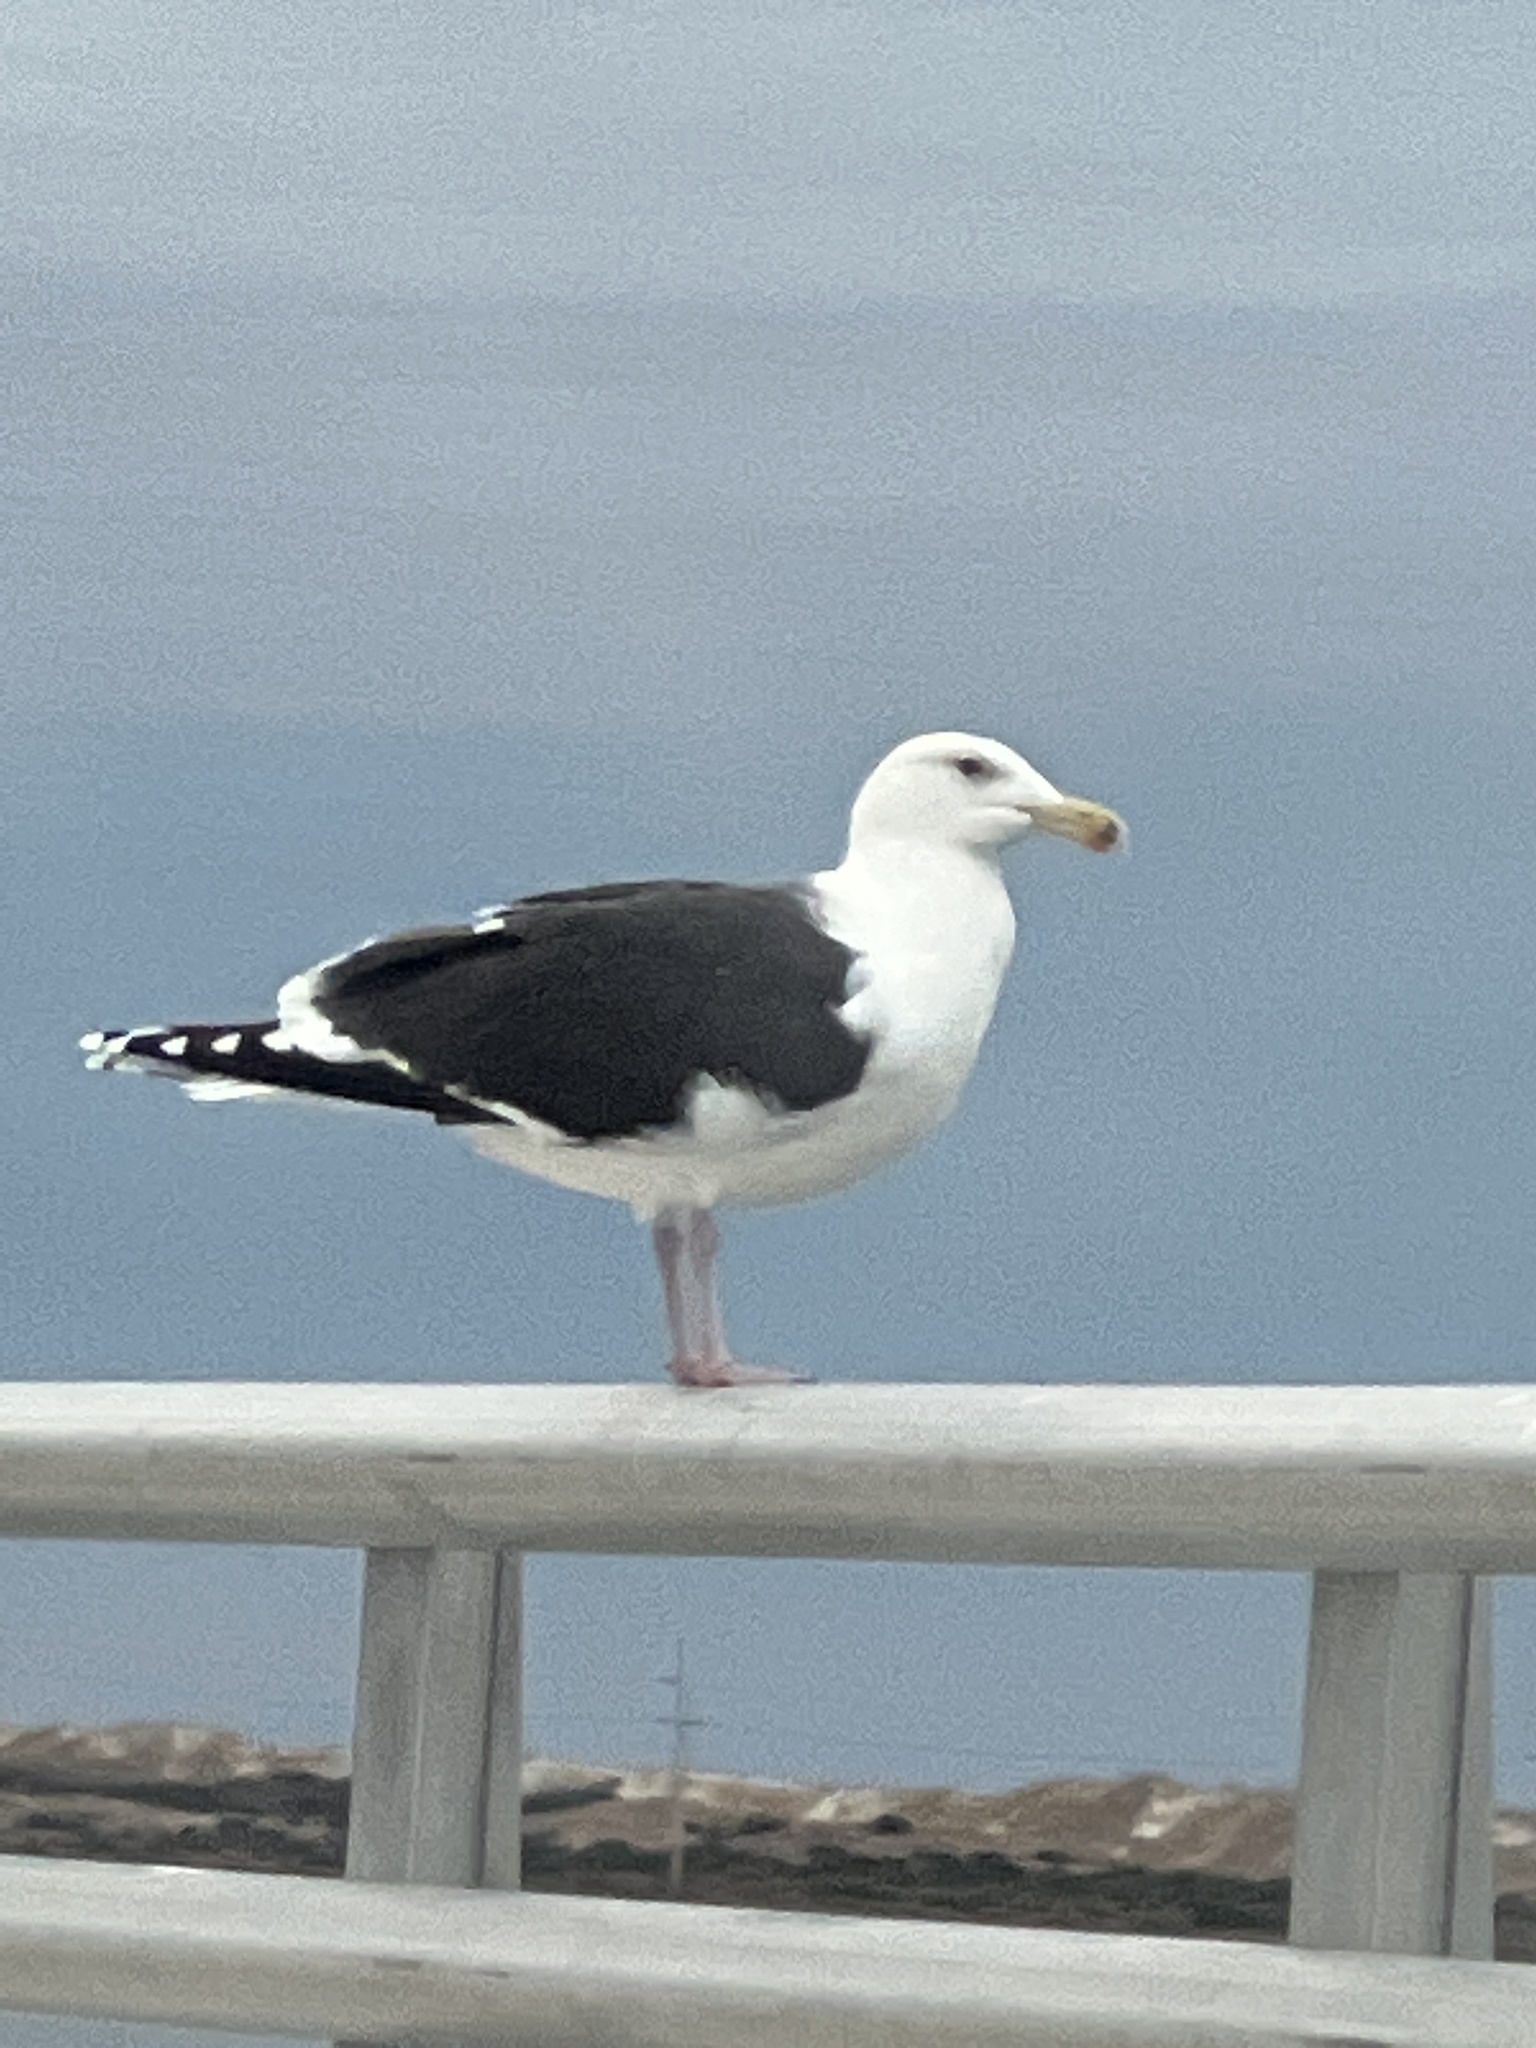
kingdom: Animalia
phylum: Chordata
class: Aves
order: Charadriiformes
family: Laridae
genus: Larus
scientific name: Larus marinus
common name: Great black-backed gull
